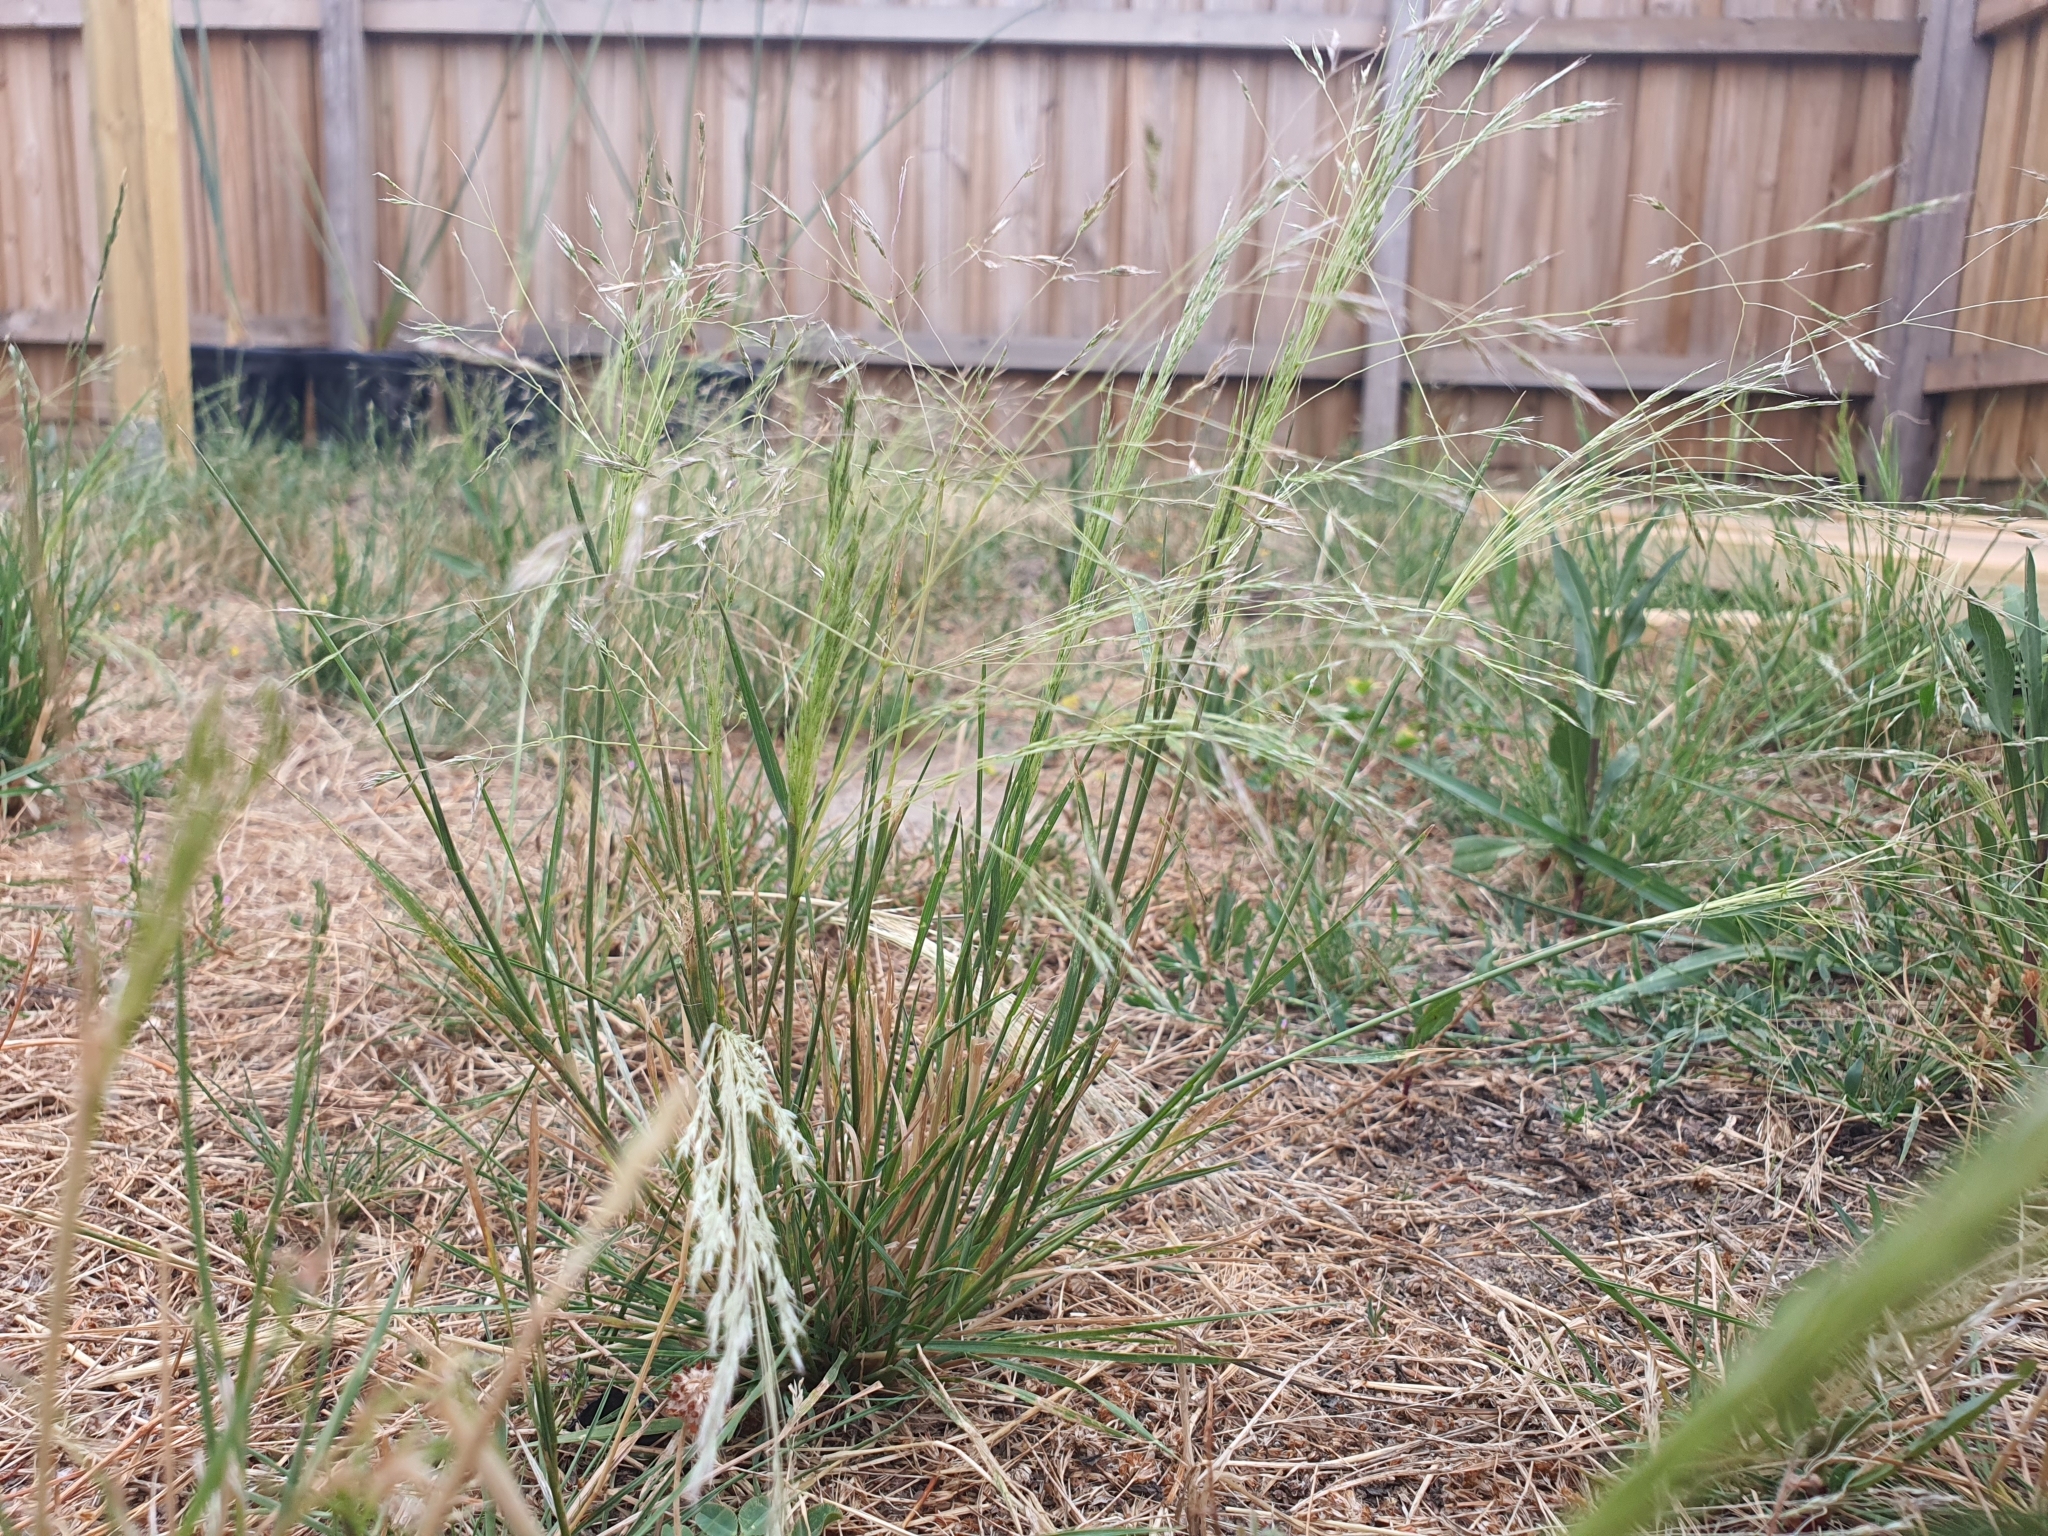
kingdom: Plantae
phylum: Tracheophyta
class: Liliopsida
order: Poales
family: Poaceae
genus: Lachnagrostis
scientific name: Lachnagrostis filiformis
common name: Bentgrass
